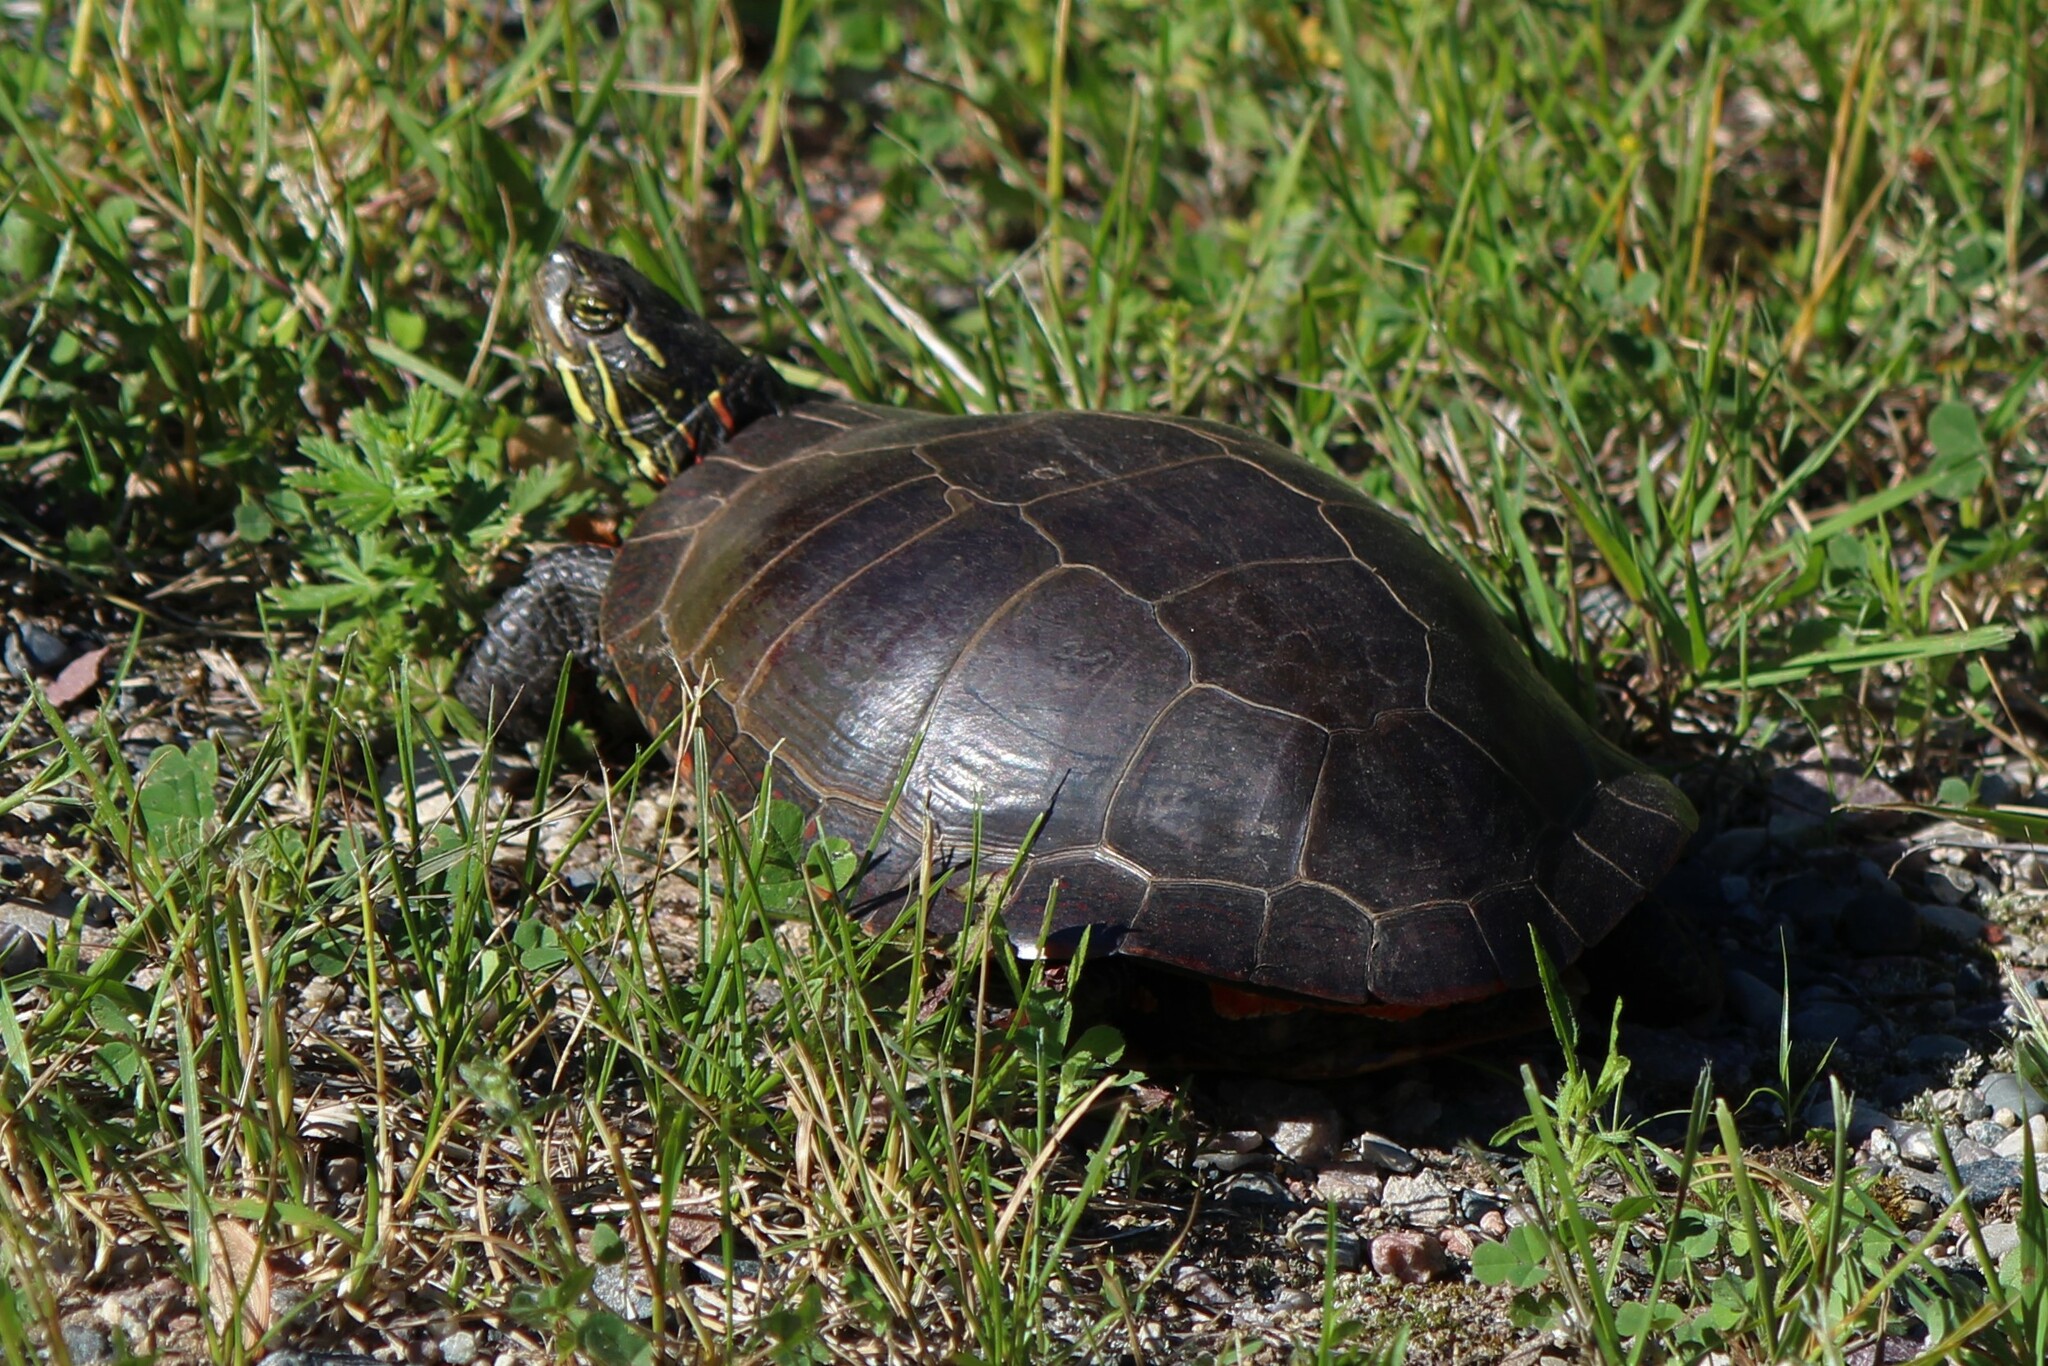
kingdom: Animalia
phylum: Chordata
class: Testudines
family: Emydidae
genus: Chrysemys
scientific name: Chrysemys picta
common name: Painted turtle
